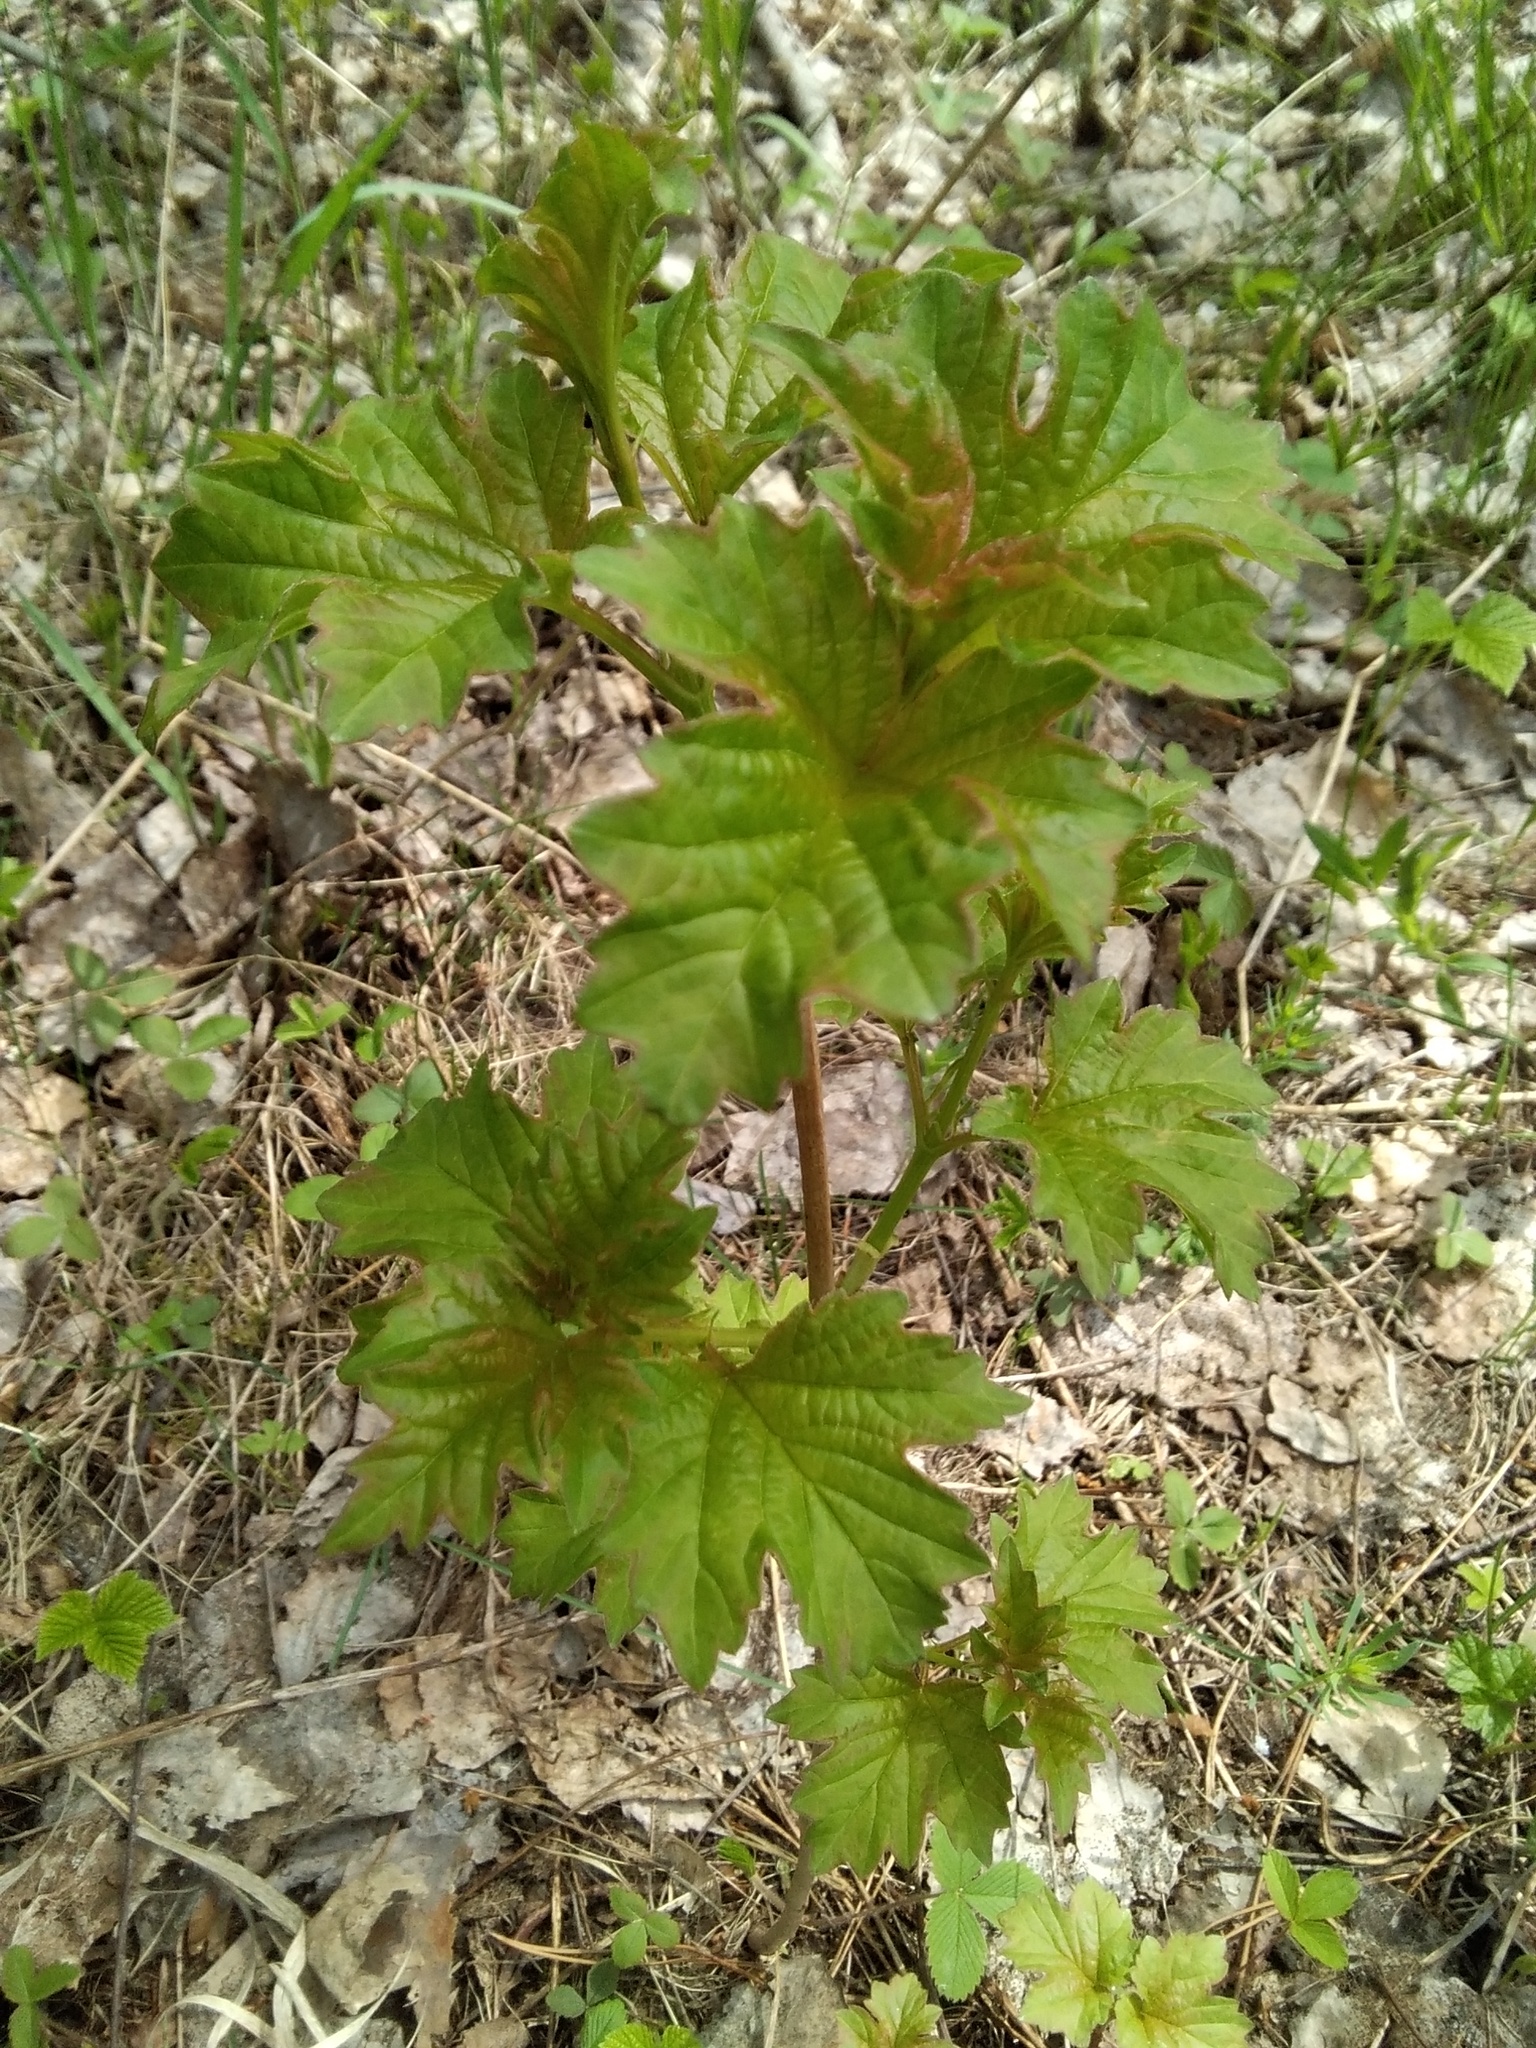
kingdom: Plantae
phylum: Tracheophyta
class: Magnoliopsida
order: Dipsacales
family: Viburnaceae
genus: Viburnum
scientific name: Viburnum opulus
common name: Guelder-rose
